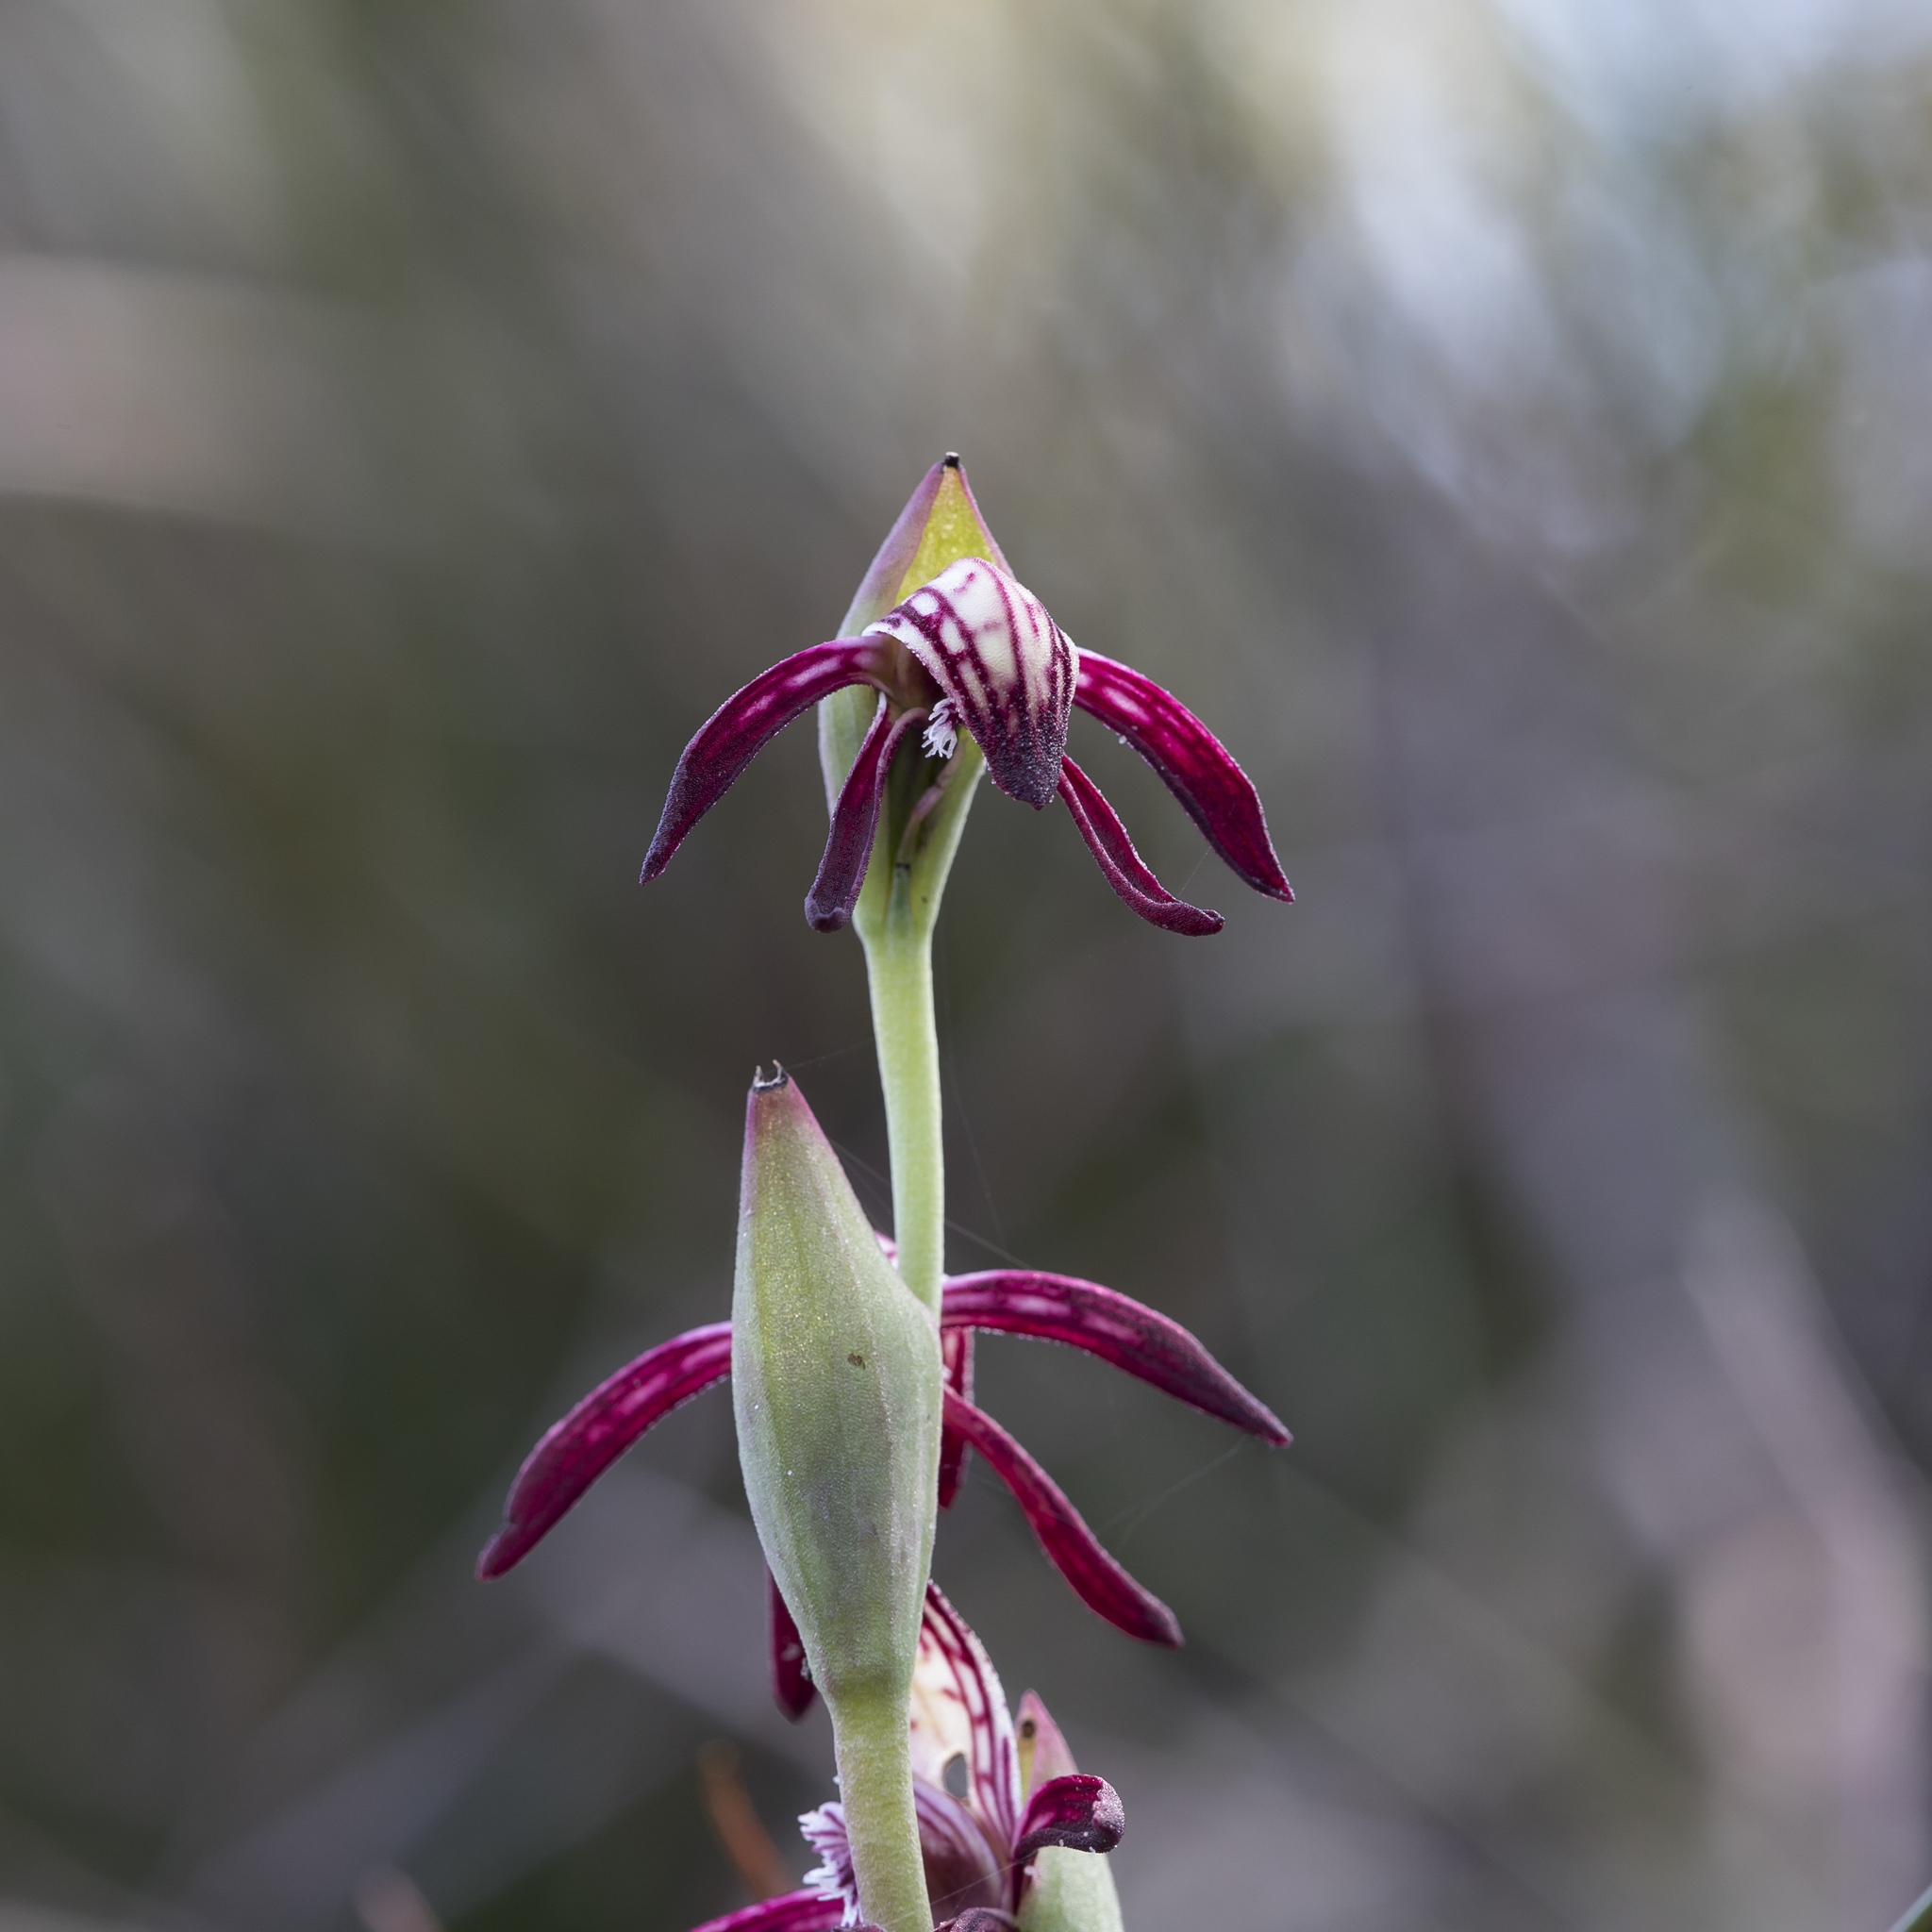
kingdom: Plantae
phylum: Tracheophyta
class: Liliopsida
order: Asparagales
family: Orchidaceae
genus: Pyrorchis
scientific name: Pyrorchis nigricans
